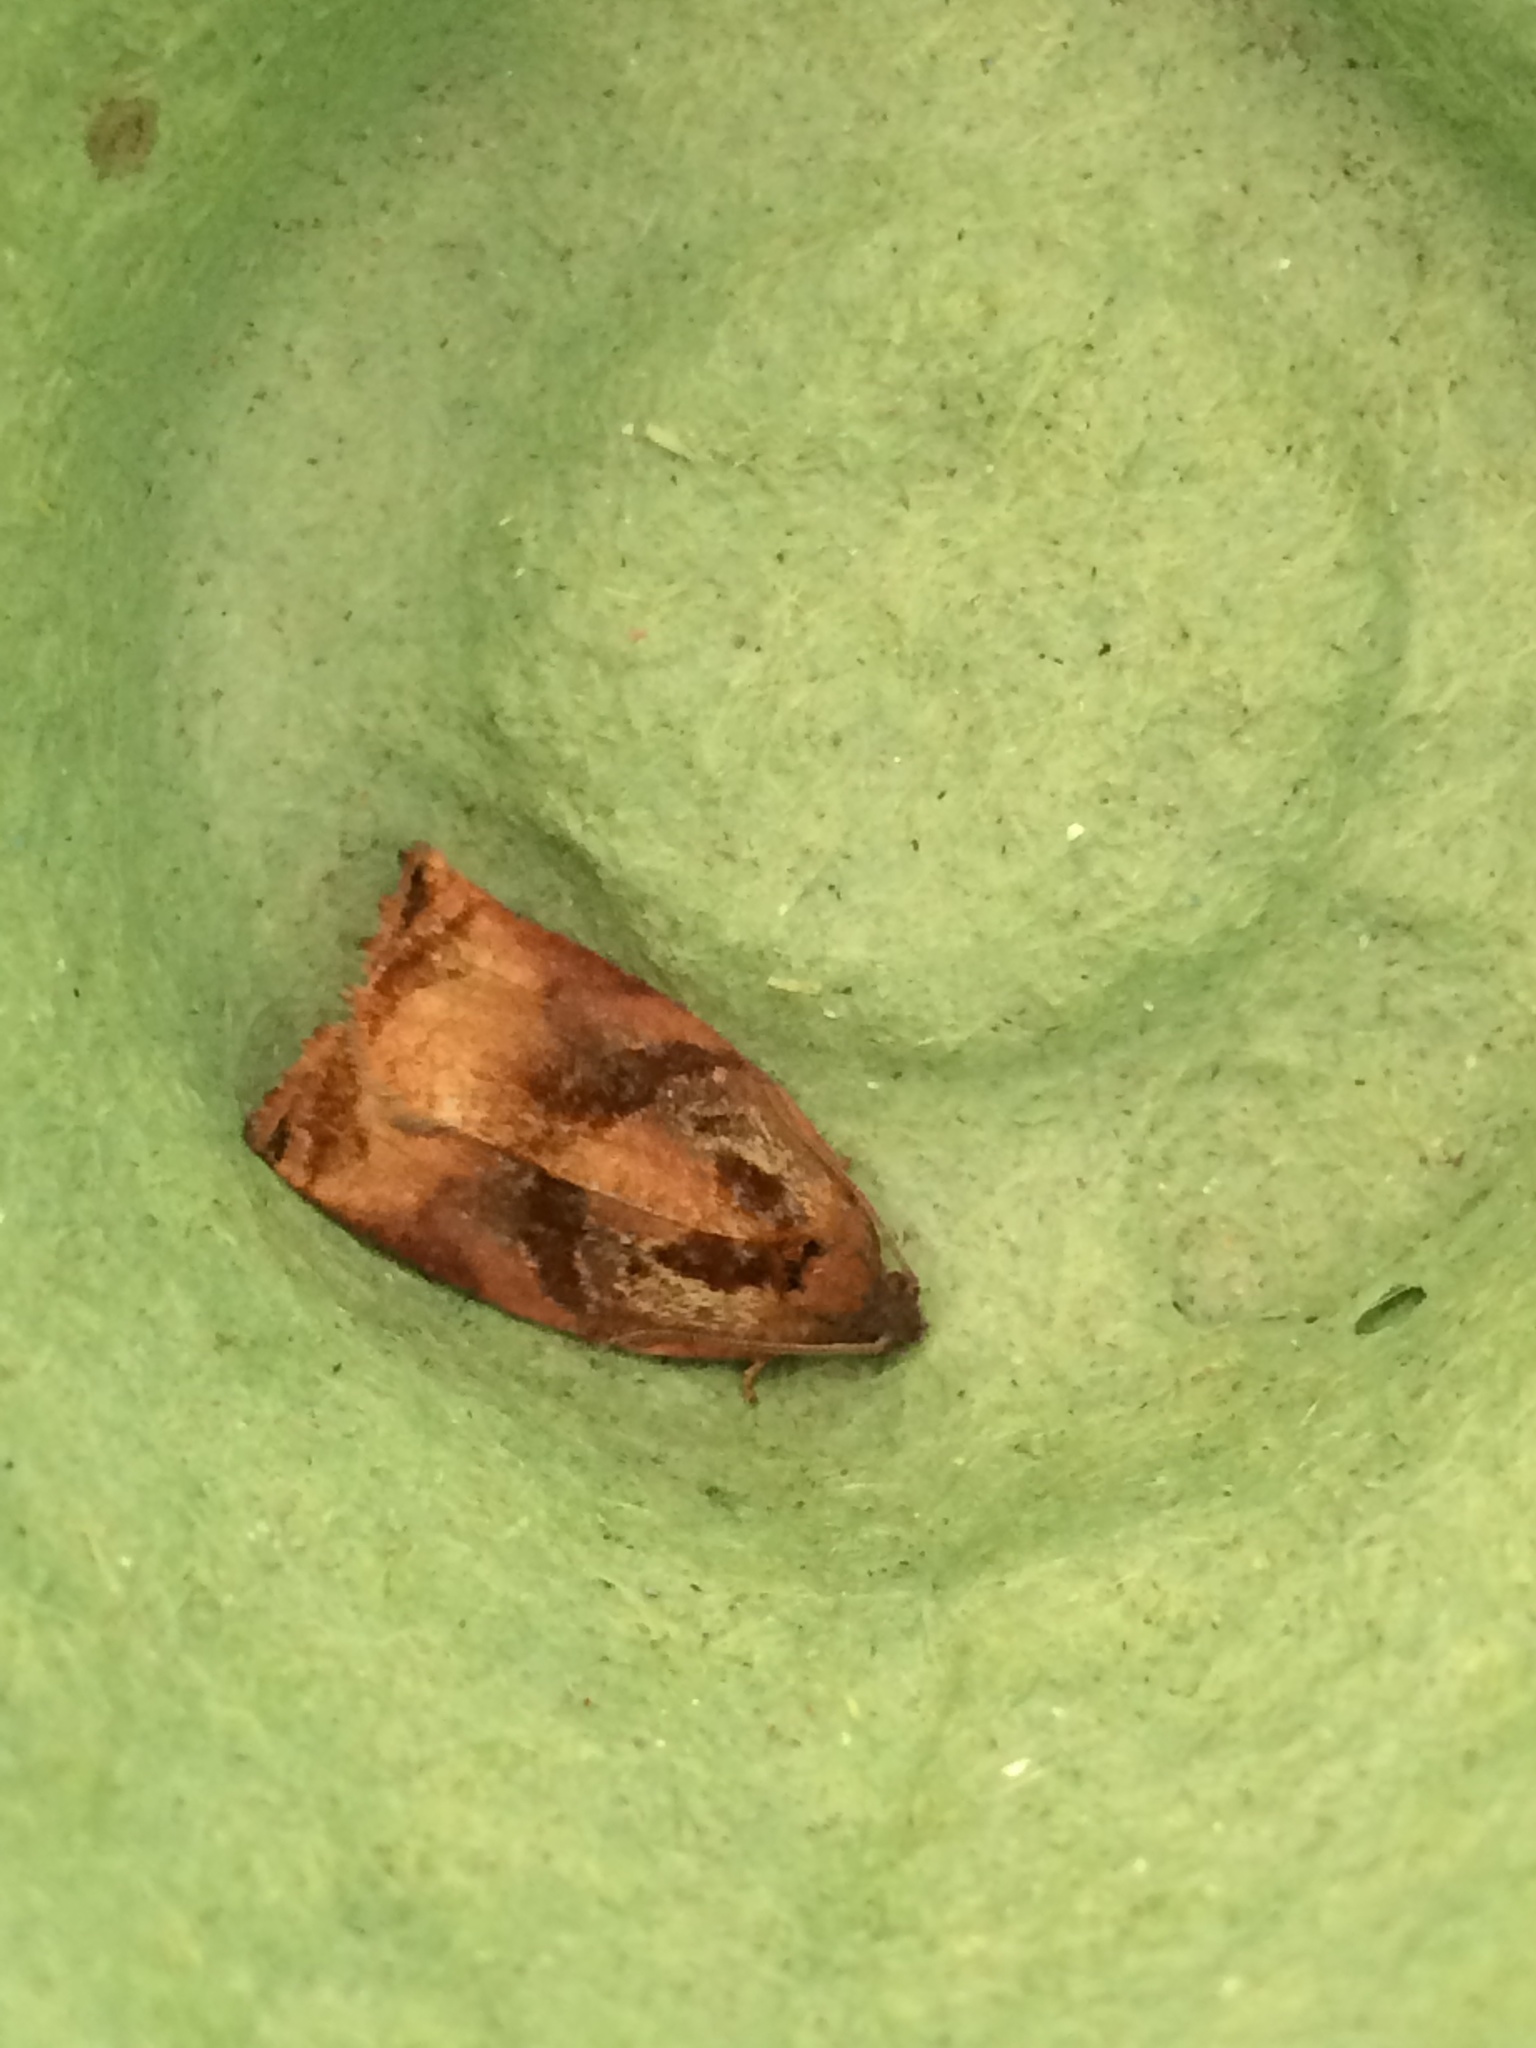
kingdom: Animalia
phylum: Arthropoda
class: Insecta
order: Lepidoptera
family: Tortricidae
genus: Archips
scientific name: Archips podana
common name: Large fruit-tree tortrix
